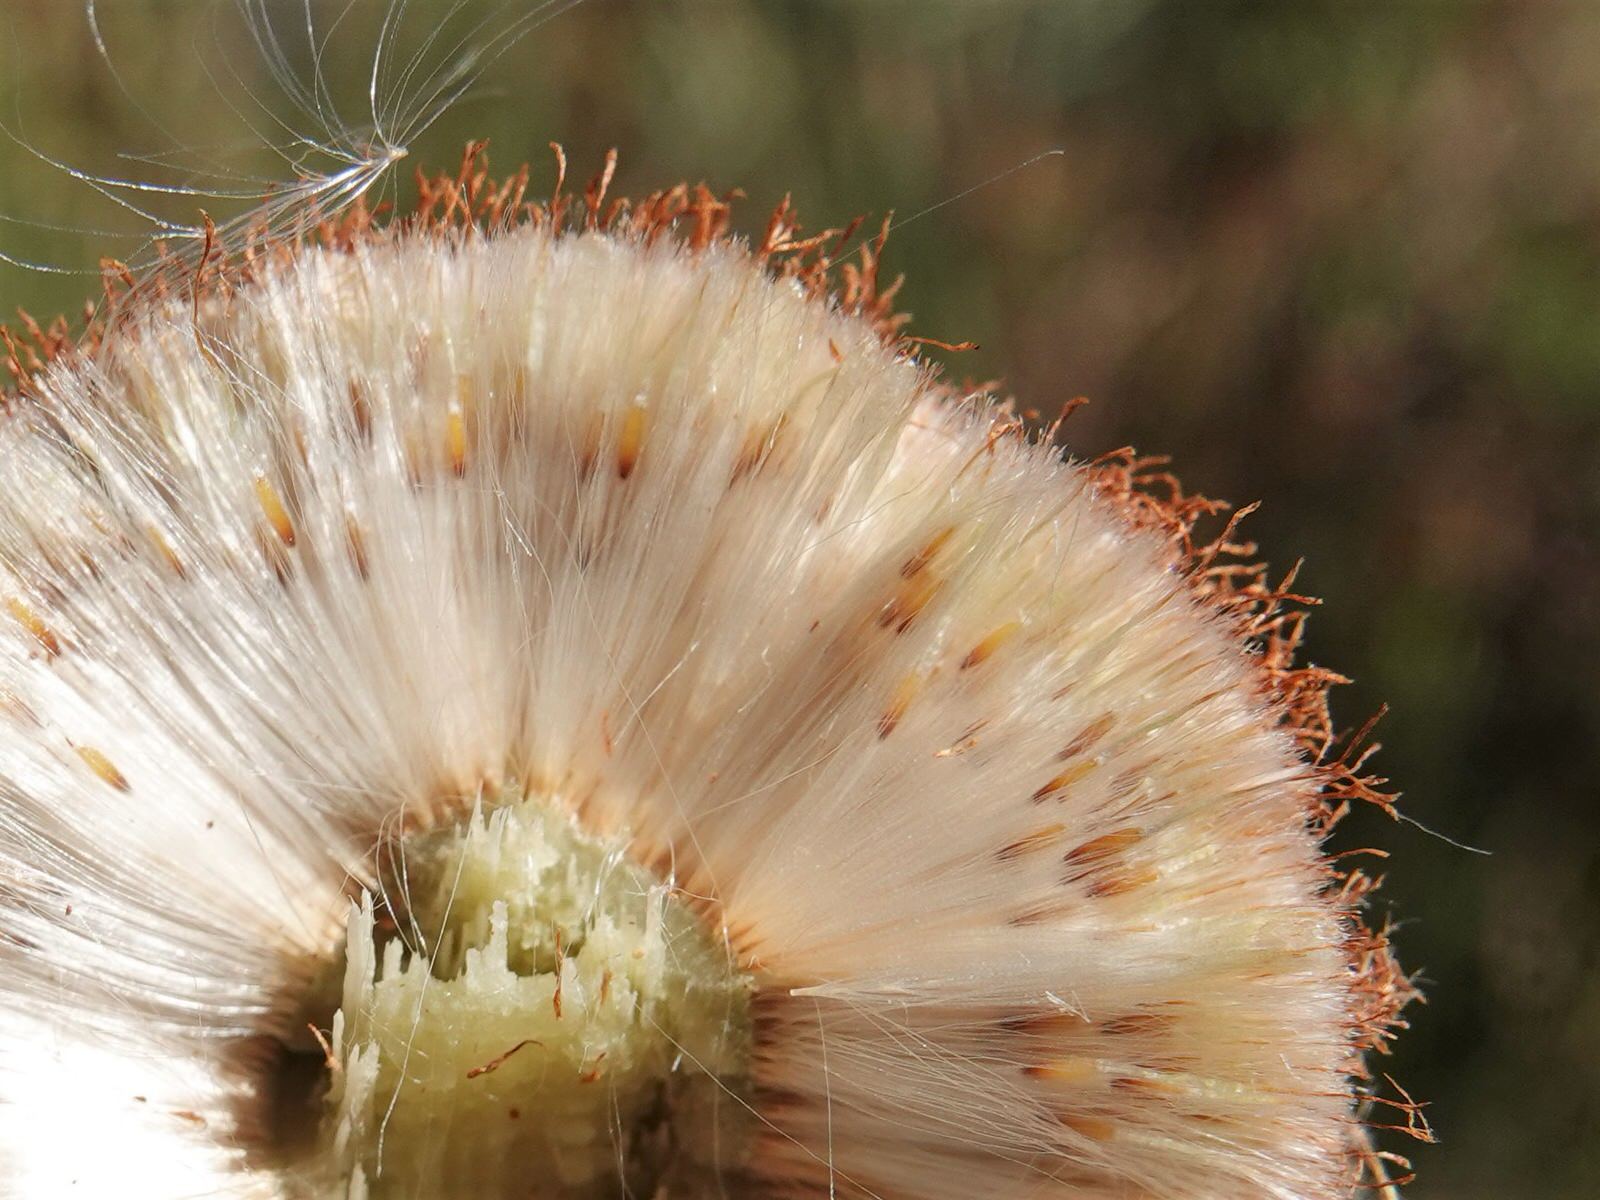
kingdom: Plantae
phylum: Tracheophyta
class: Liliopsida
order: Poales
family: Typhaceae
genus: Typha
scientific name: Typha orientalis
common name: Bullrush
